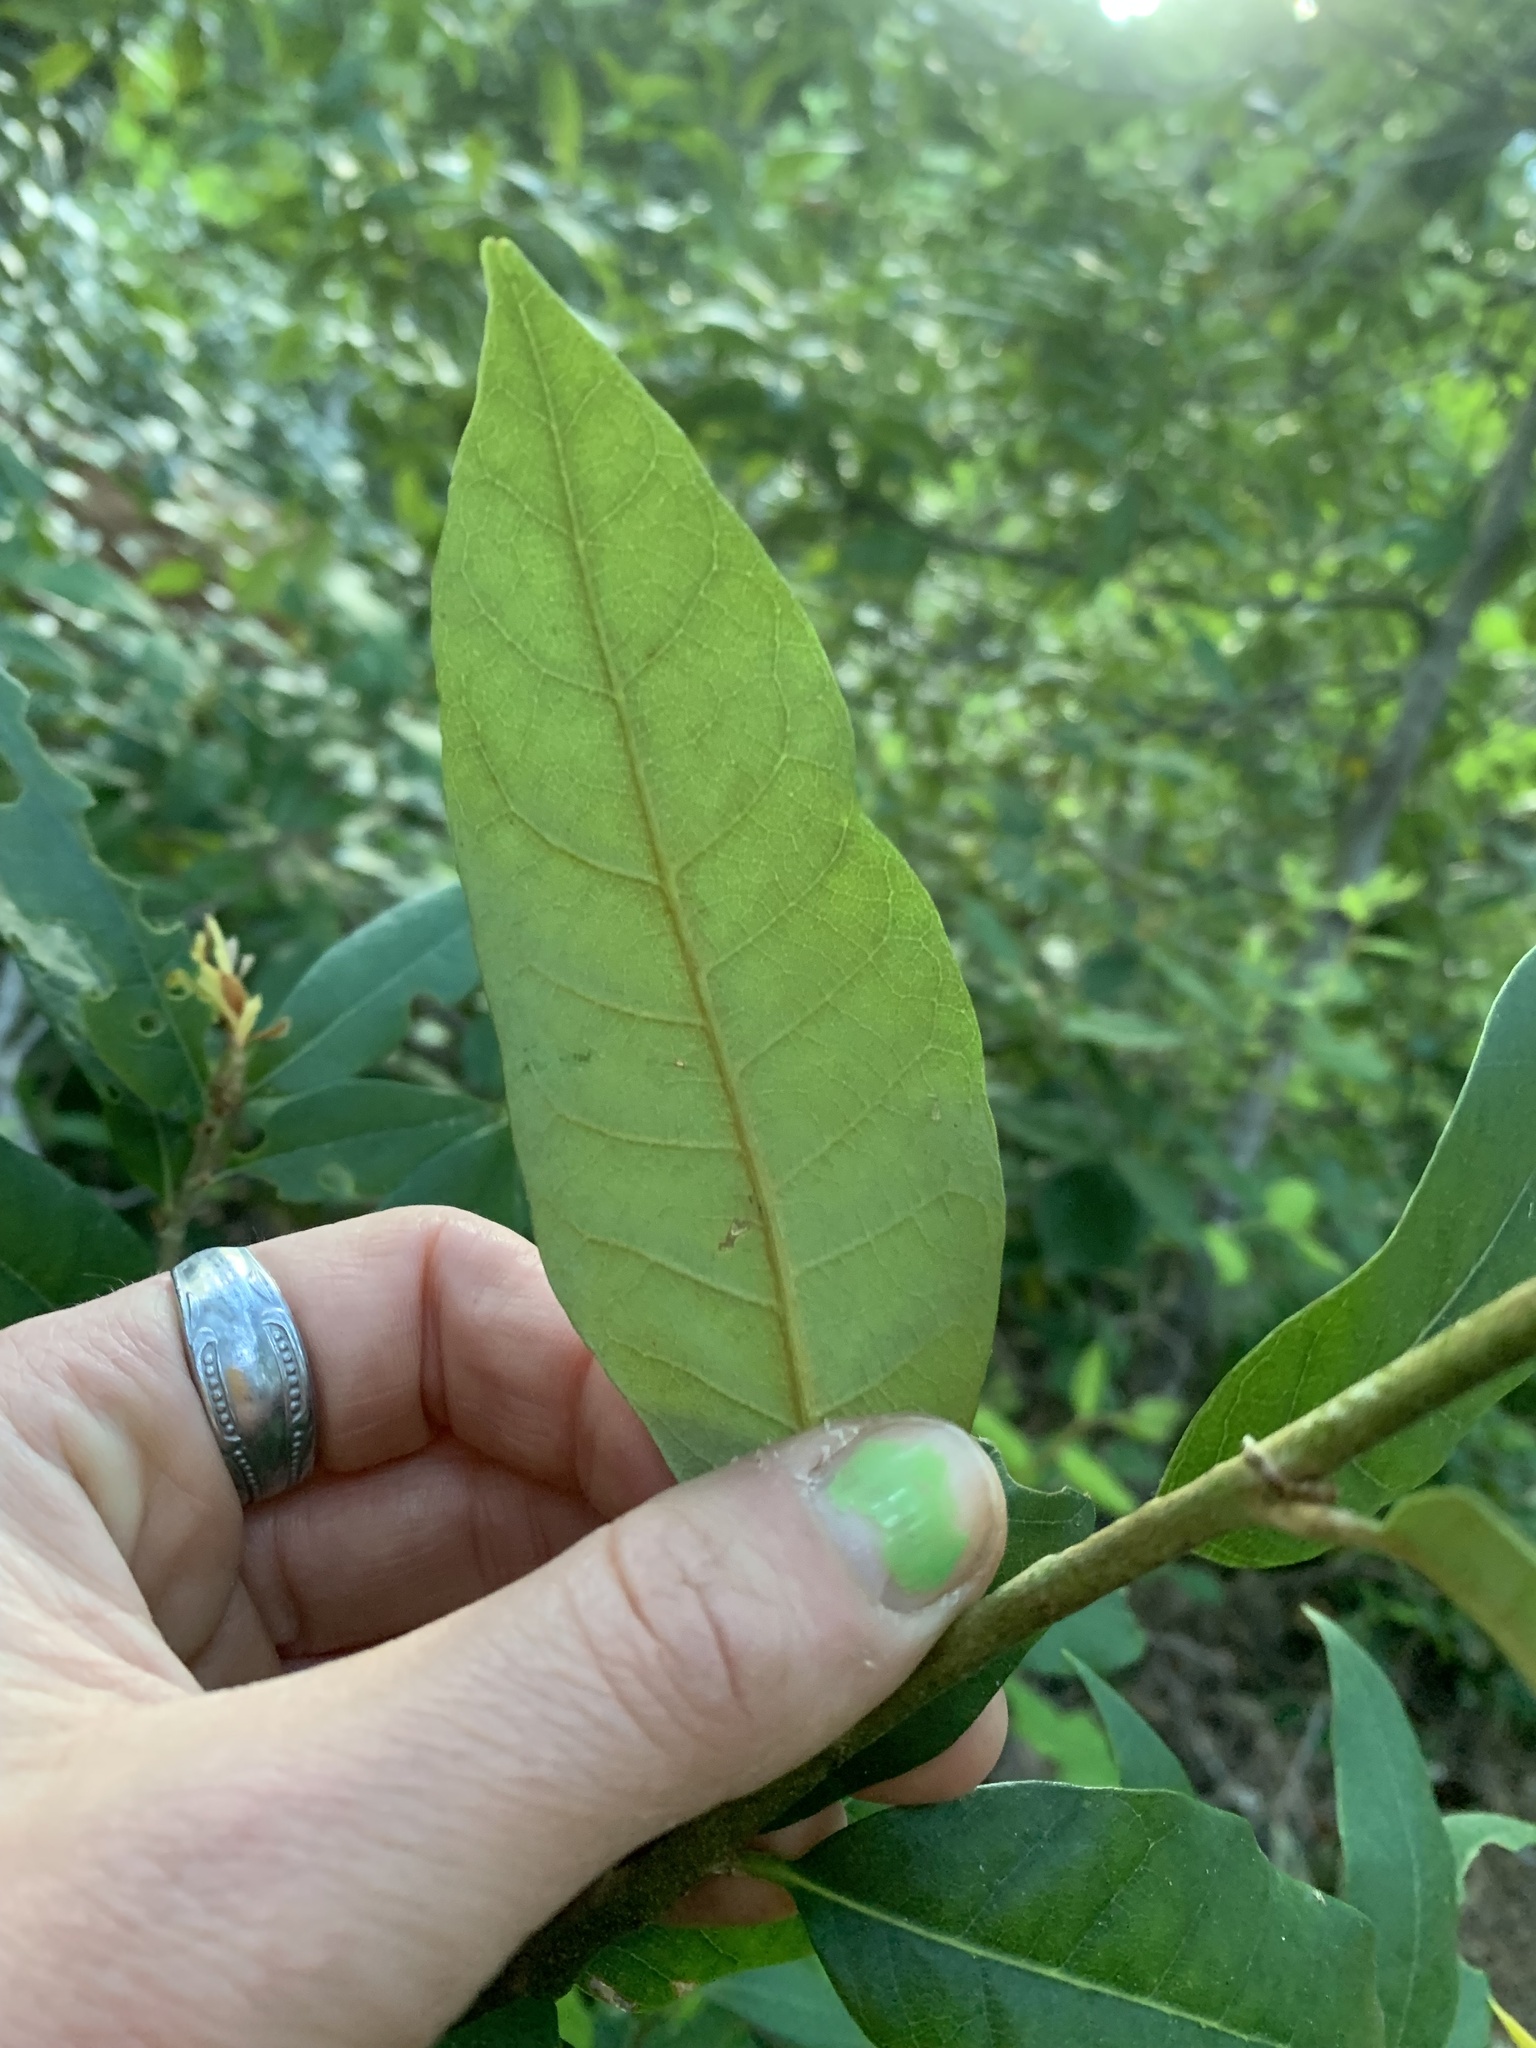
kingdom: Plantae
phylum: Tracheophyta
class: Magnoliopsida
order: Fagales
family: Fagaceae
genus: Chrysolepis
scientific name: Chrysolepis chrysophylla
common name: Giant chinquapin
